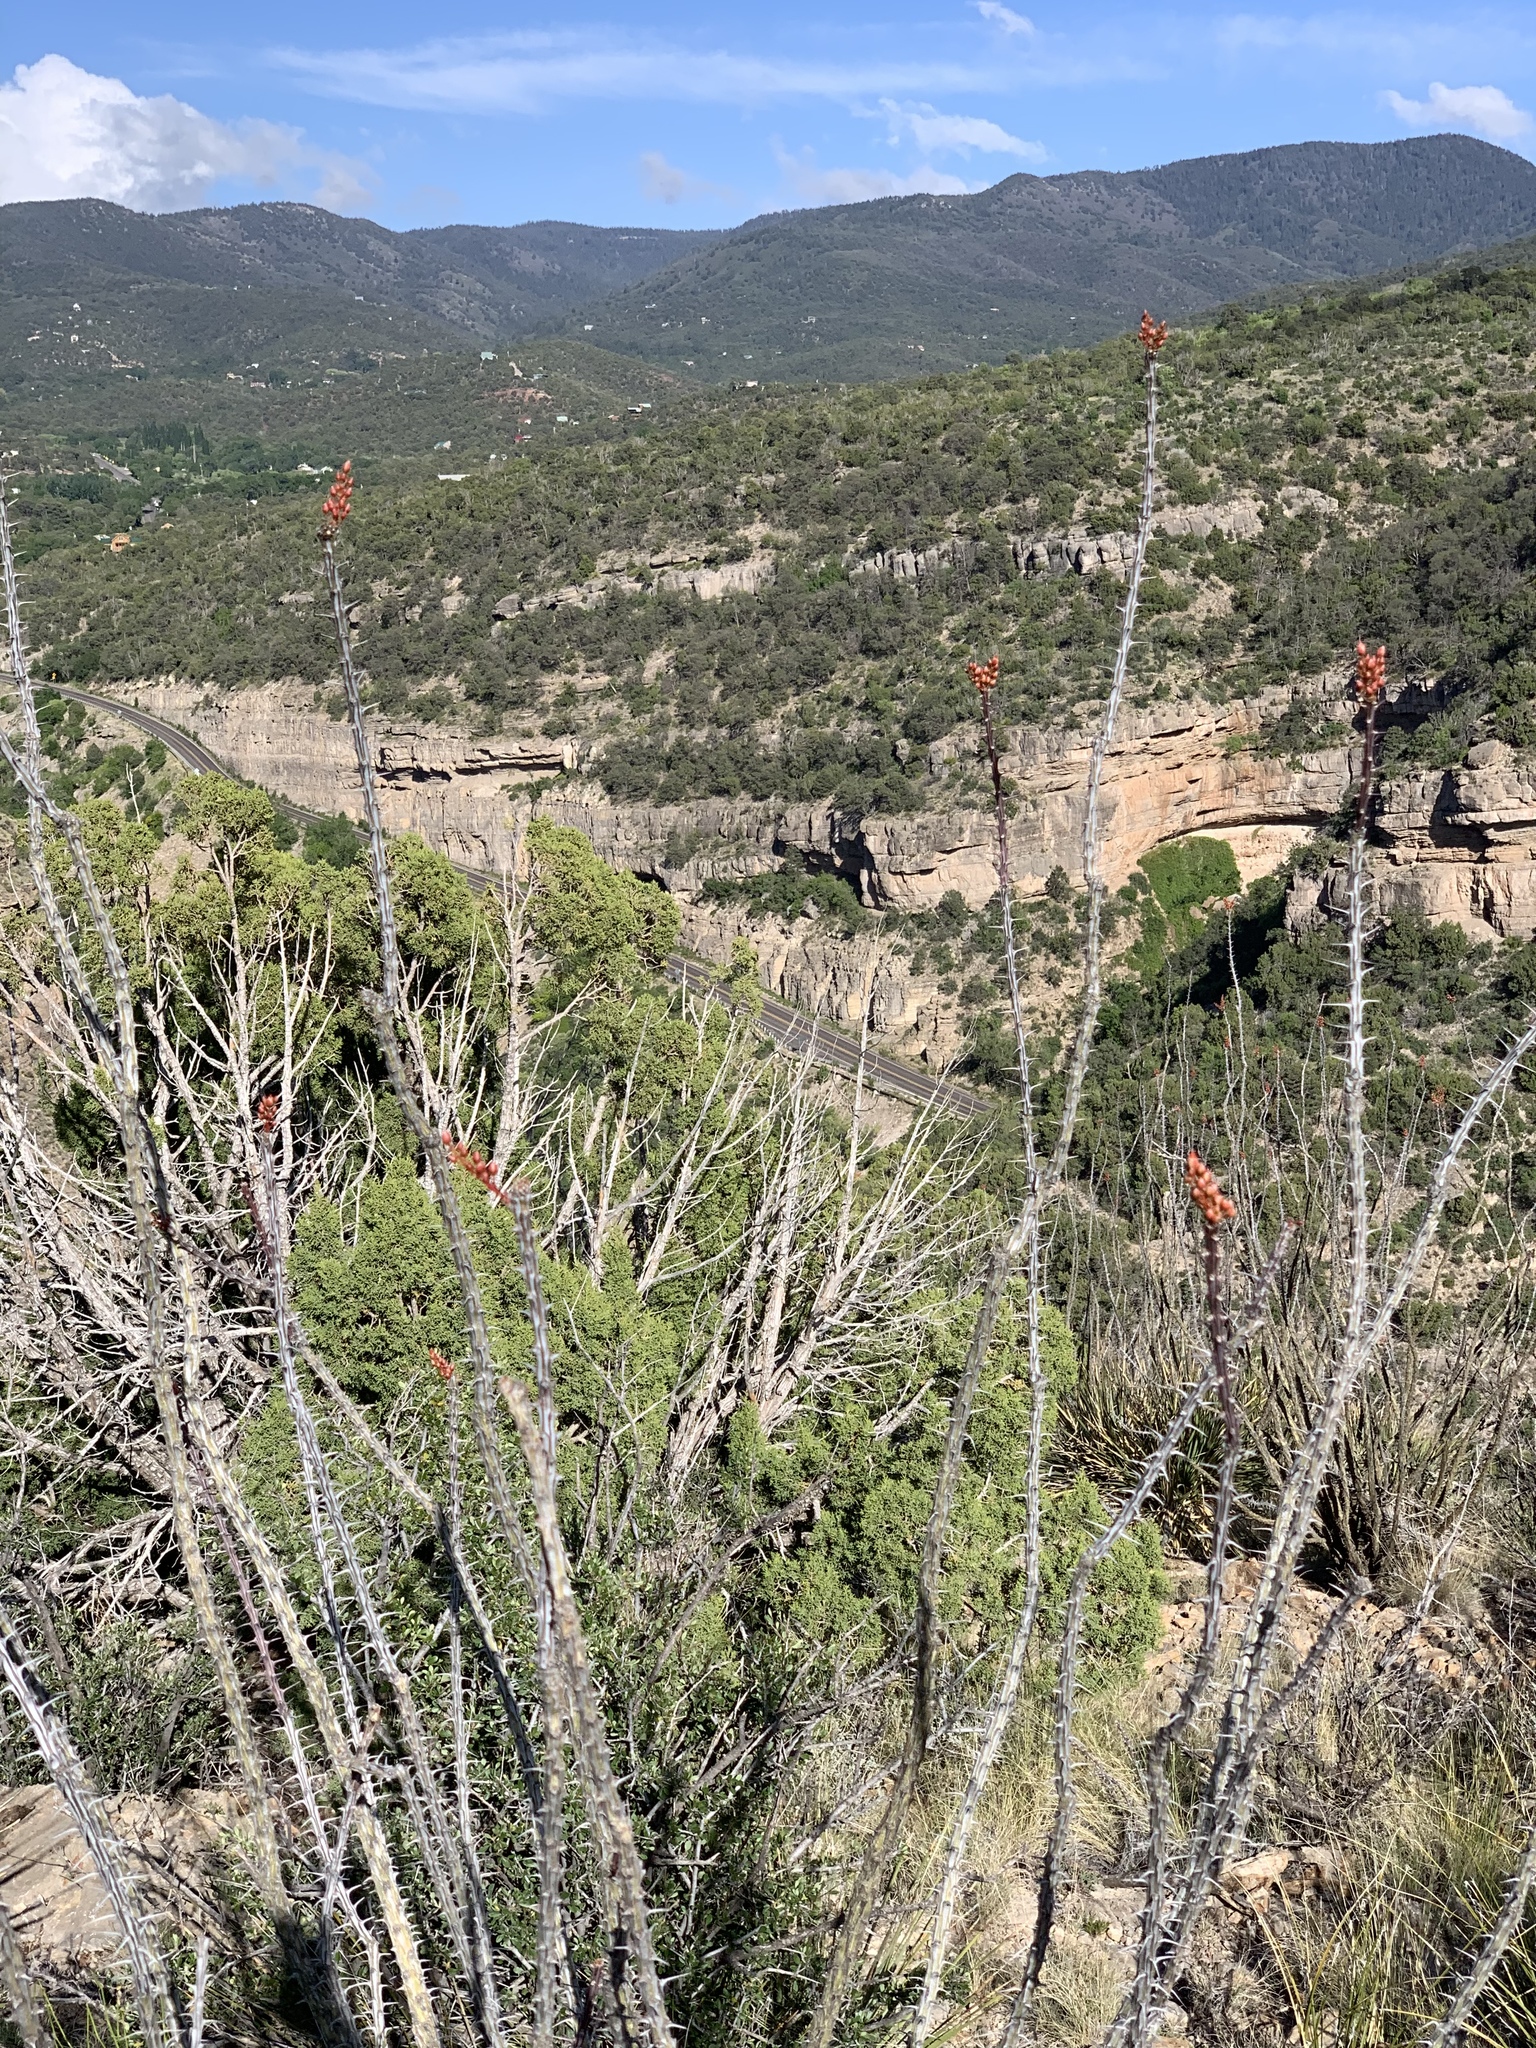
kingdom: Plantae
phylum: Tracheophyta
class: Magnoliopsida
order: Ericales
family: Fouquieriaceae
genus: Fouquieria
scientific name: Fouquieria splendens
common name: Vine-cactus
